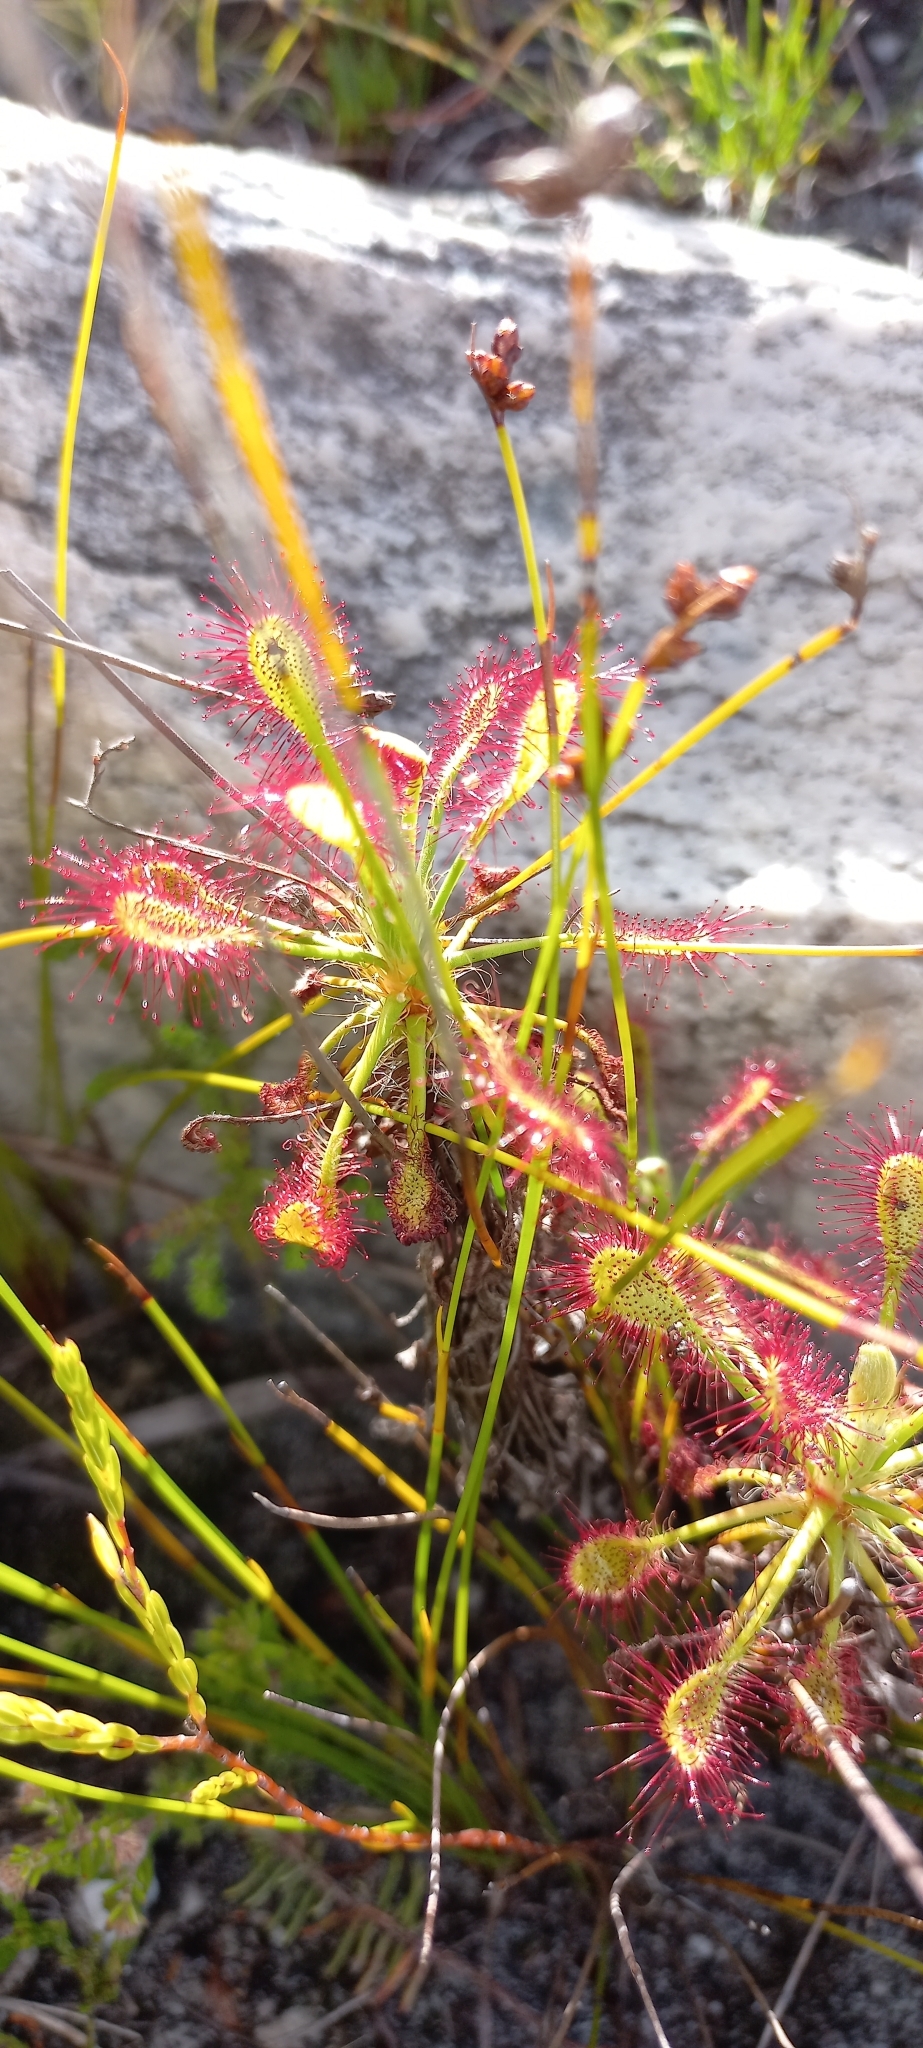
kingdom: Plantae
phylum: Tracheophyta
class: Magnoliopsida
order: Caryophyllales
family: Droseraceae
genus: Drosera
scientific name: Drosera glabripes
